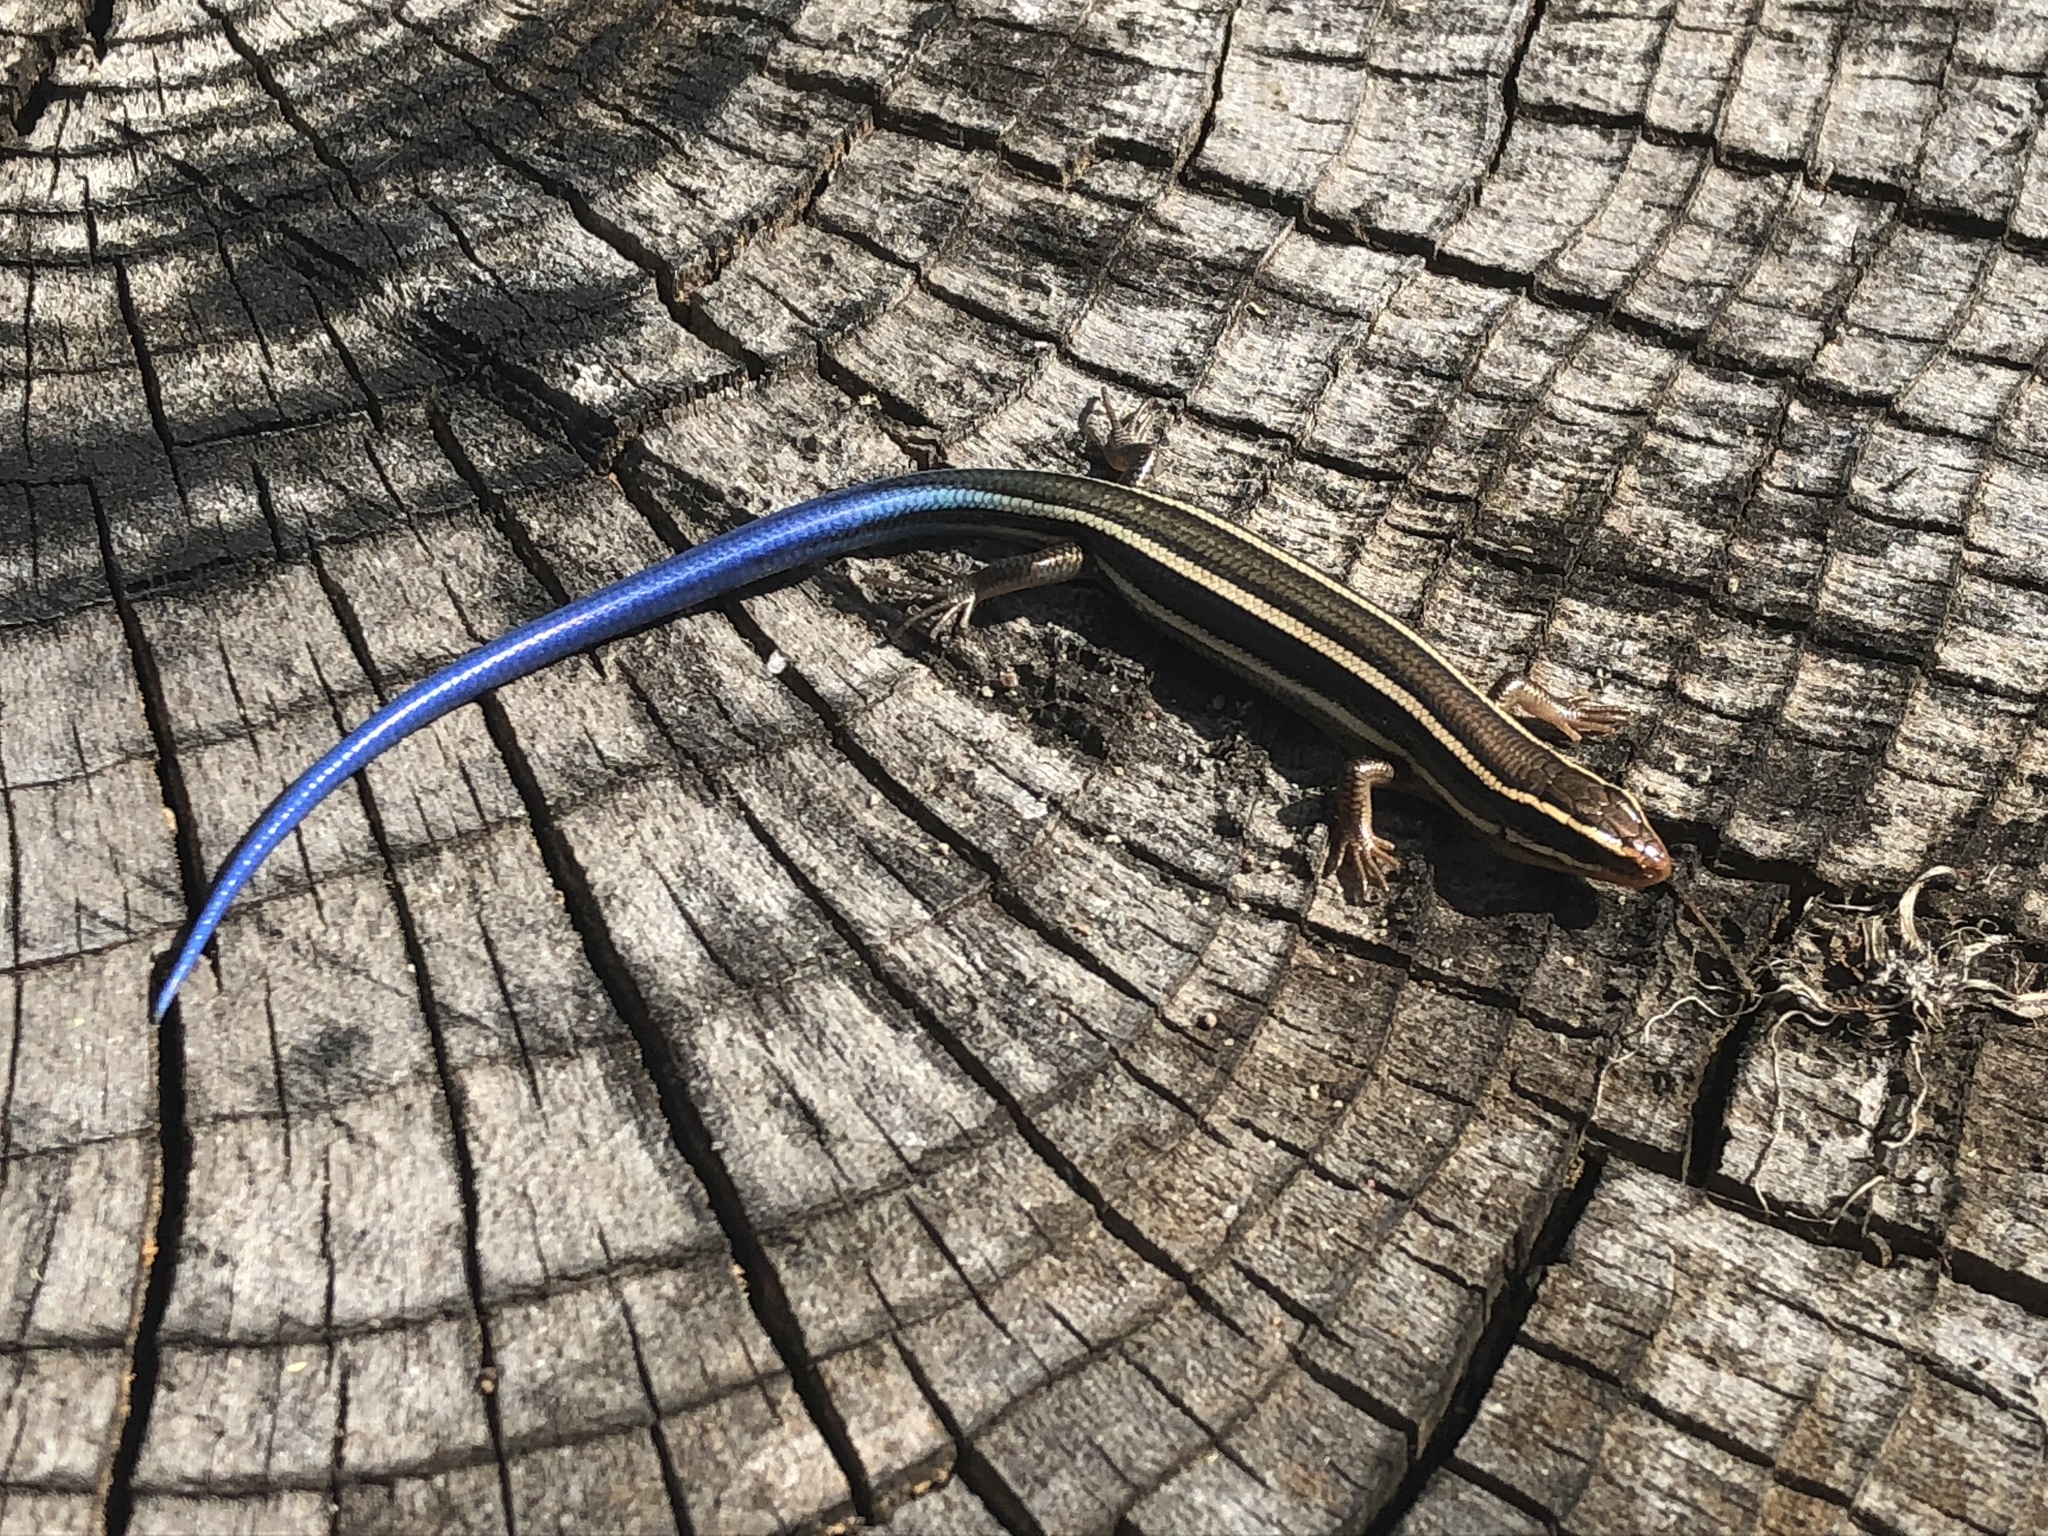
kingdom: Animalia
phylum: Chordata
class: Squamata
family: Scincidae
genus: Plestiodon
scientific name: Plestiodon skiltonianus
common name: Coronado island skink [interparietalis]
